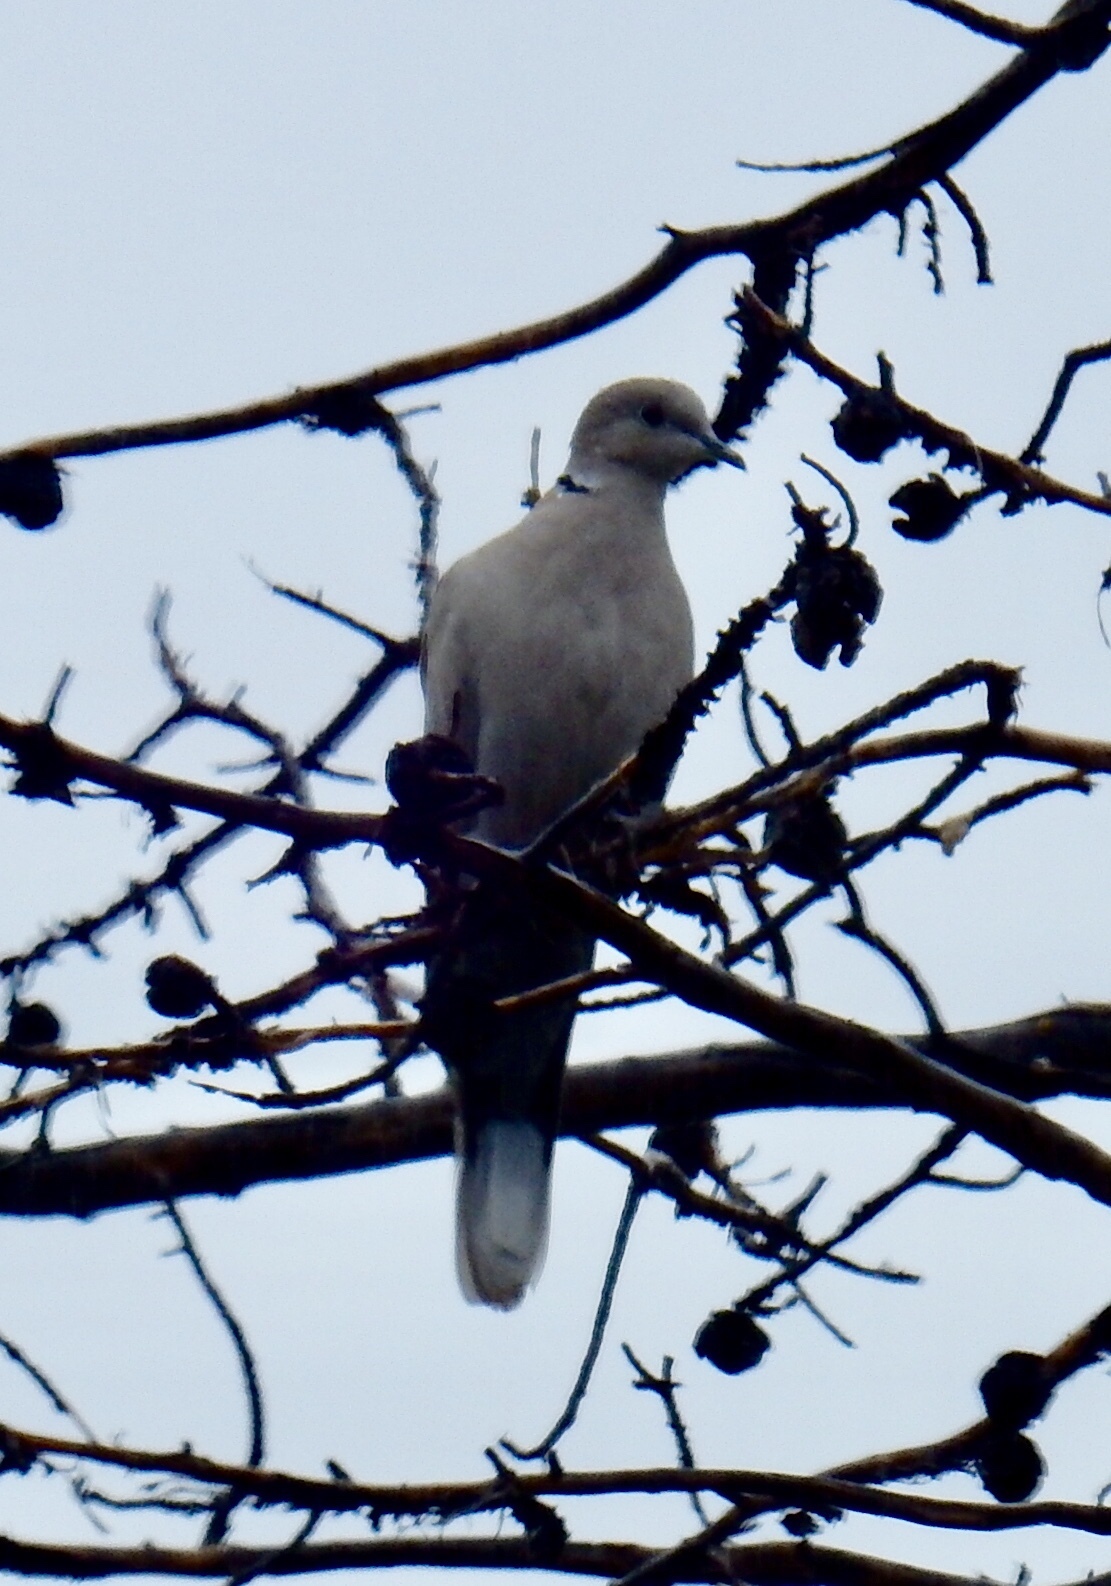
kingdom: Animalia
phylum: Chordata
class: Aves
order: Columbiformes
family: Columbidae
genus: Streptopelia
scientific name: Streptopelia decaocto
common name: Eurasian collared dove
